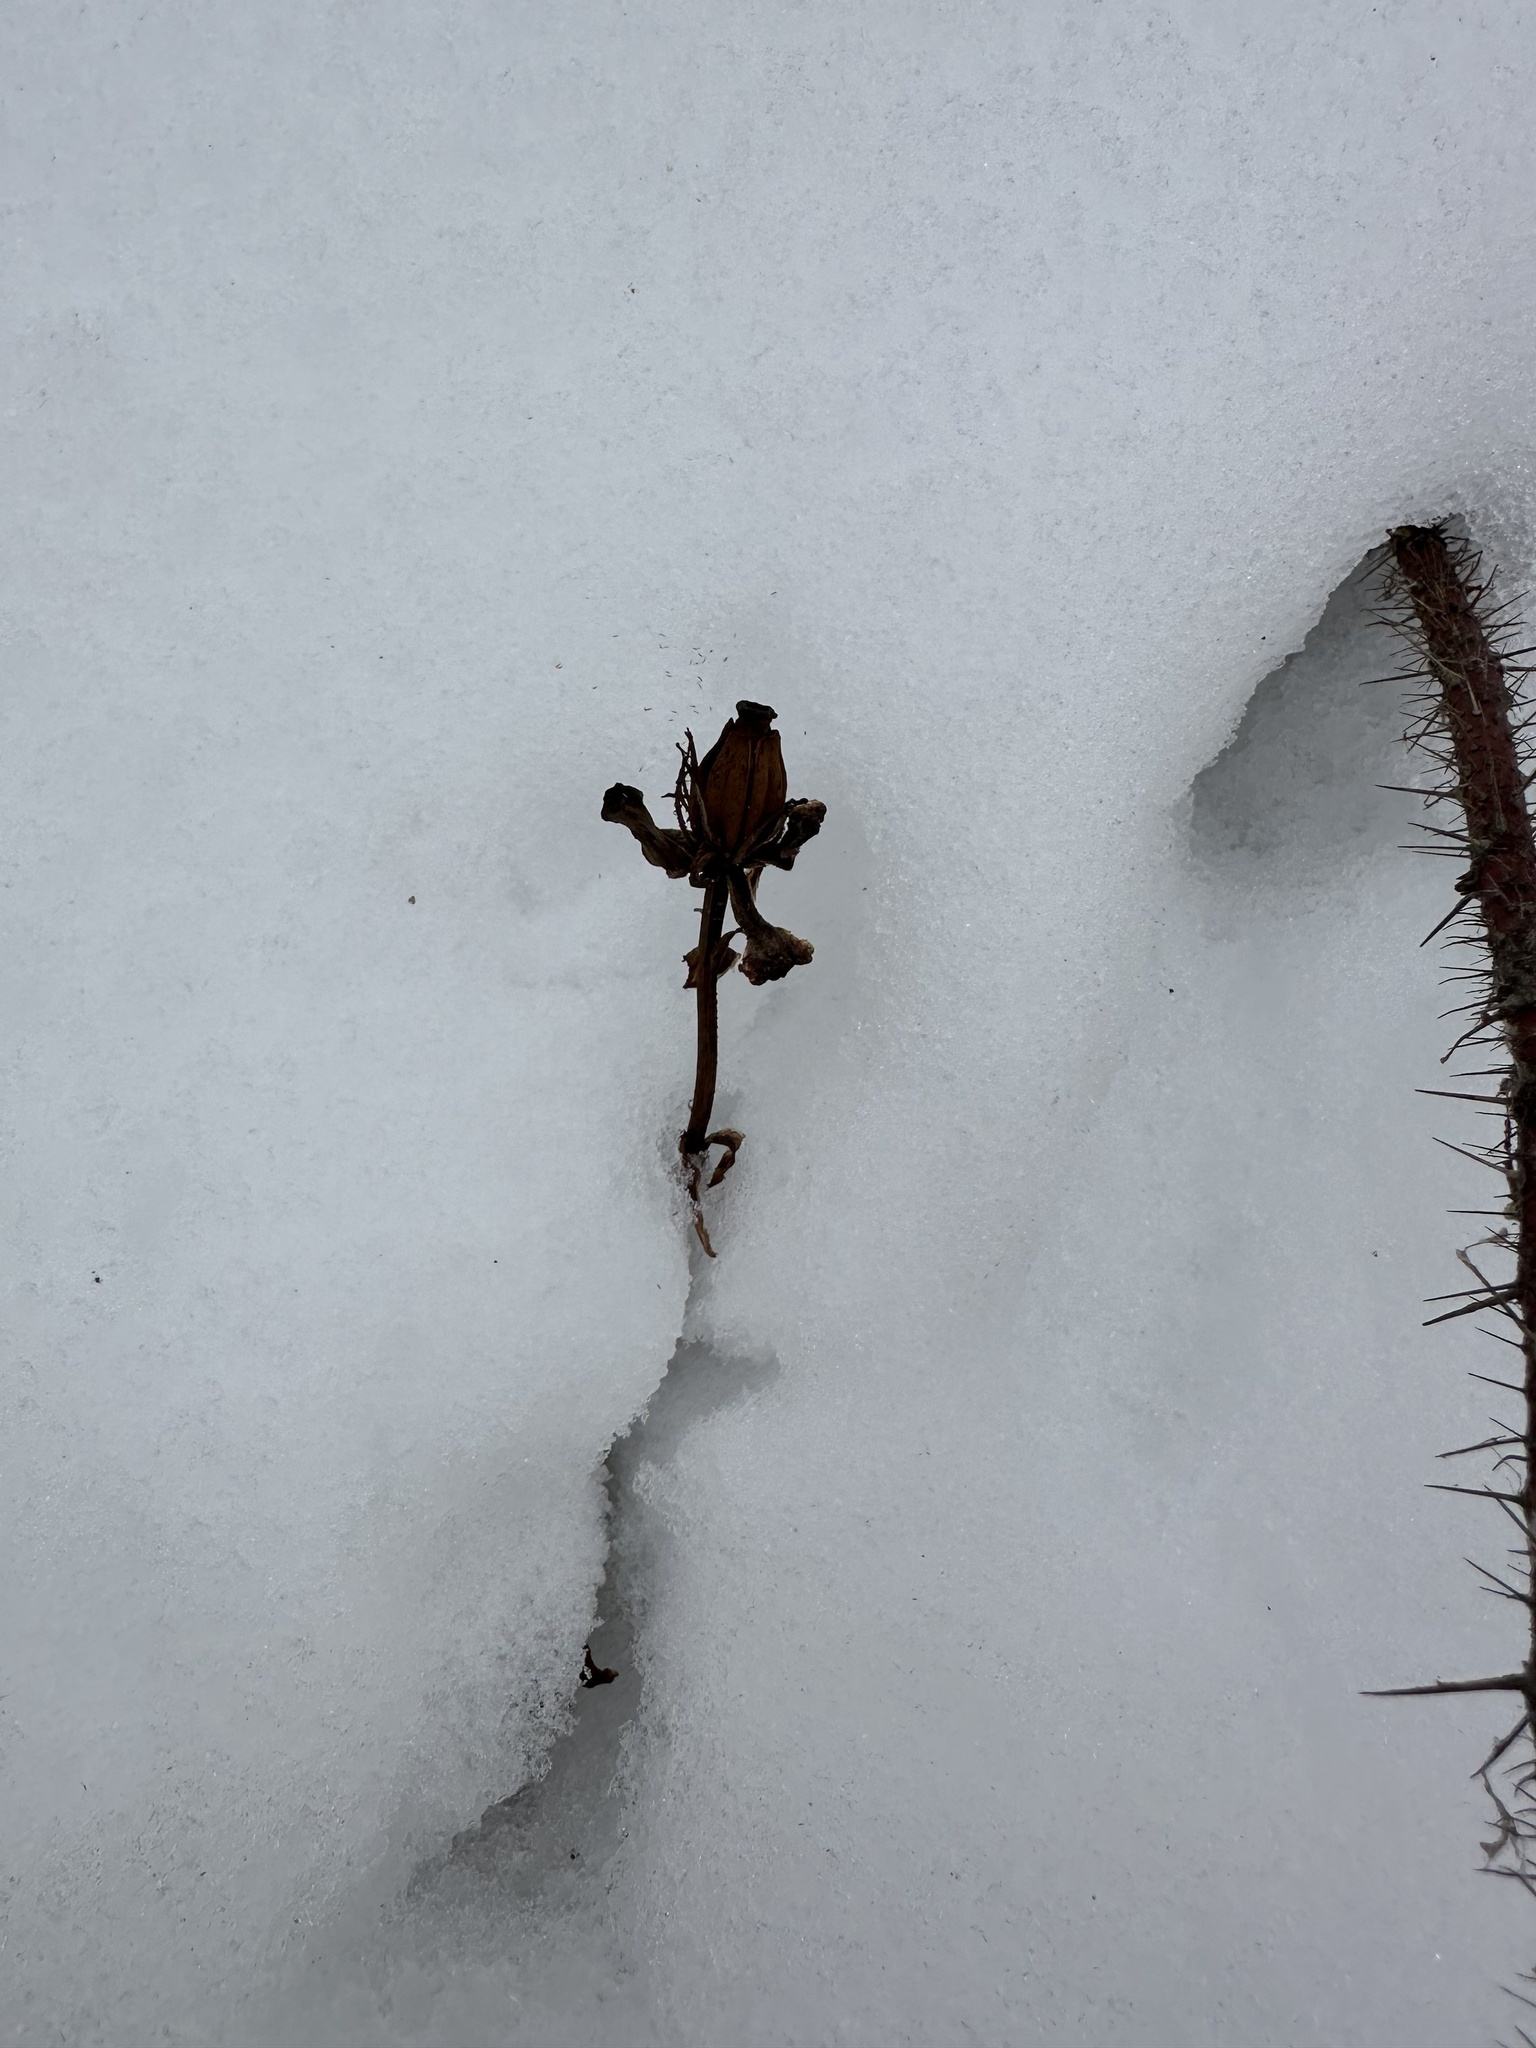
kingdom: Plantae
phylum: Tracheophyta
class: Magnoliopsida
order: Ericales
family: Ericaceae
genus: Monotropa
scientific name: Monotropa uniflora
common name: Convulsion root
